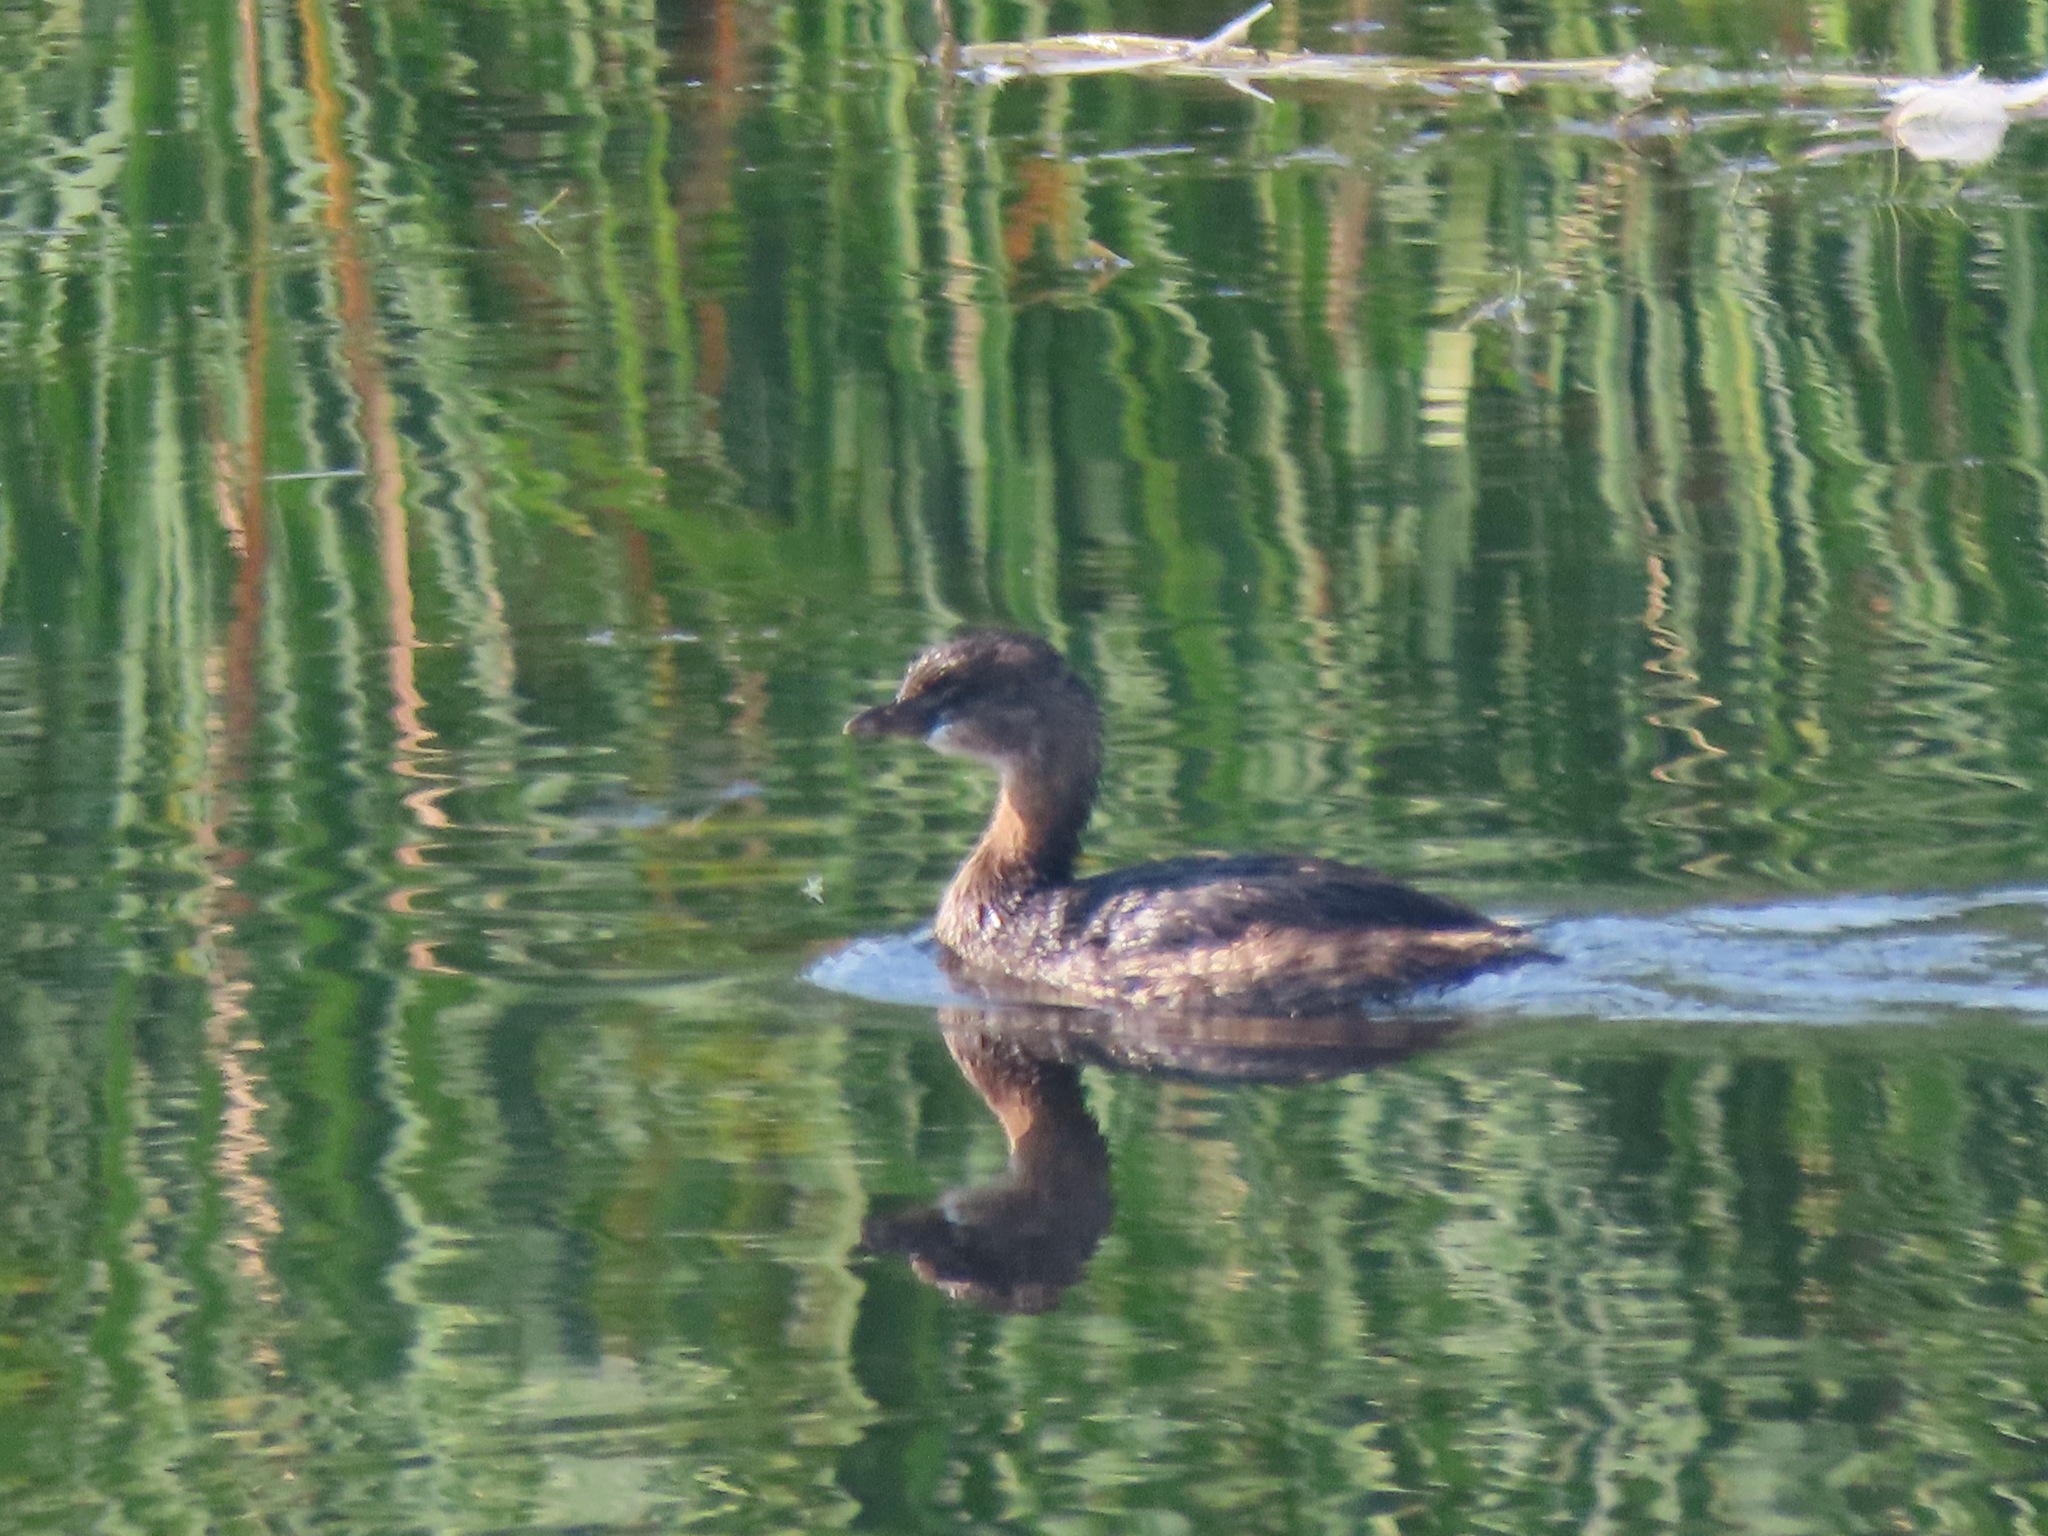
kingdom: Animalia
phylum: Chordata
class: Aves
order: Podicipediformes
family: Podicipedidae
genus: Podilymbus
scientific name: Podilymbus podiceps
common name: Pied-billed grebe
